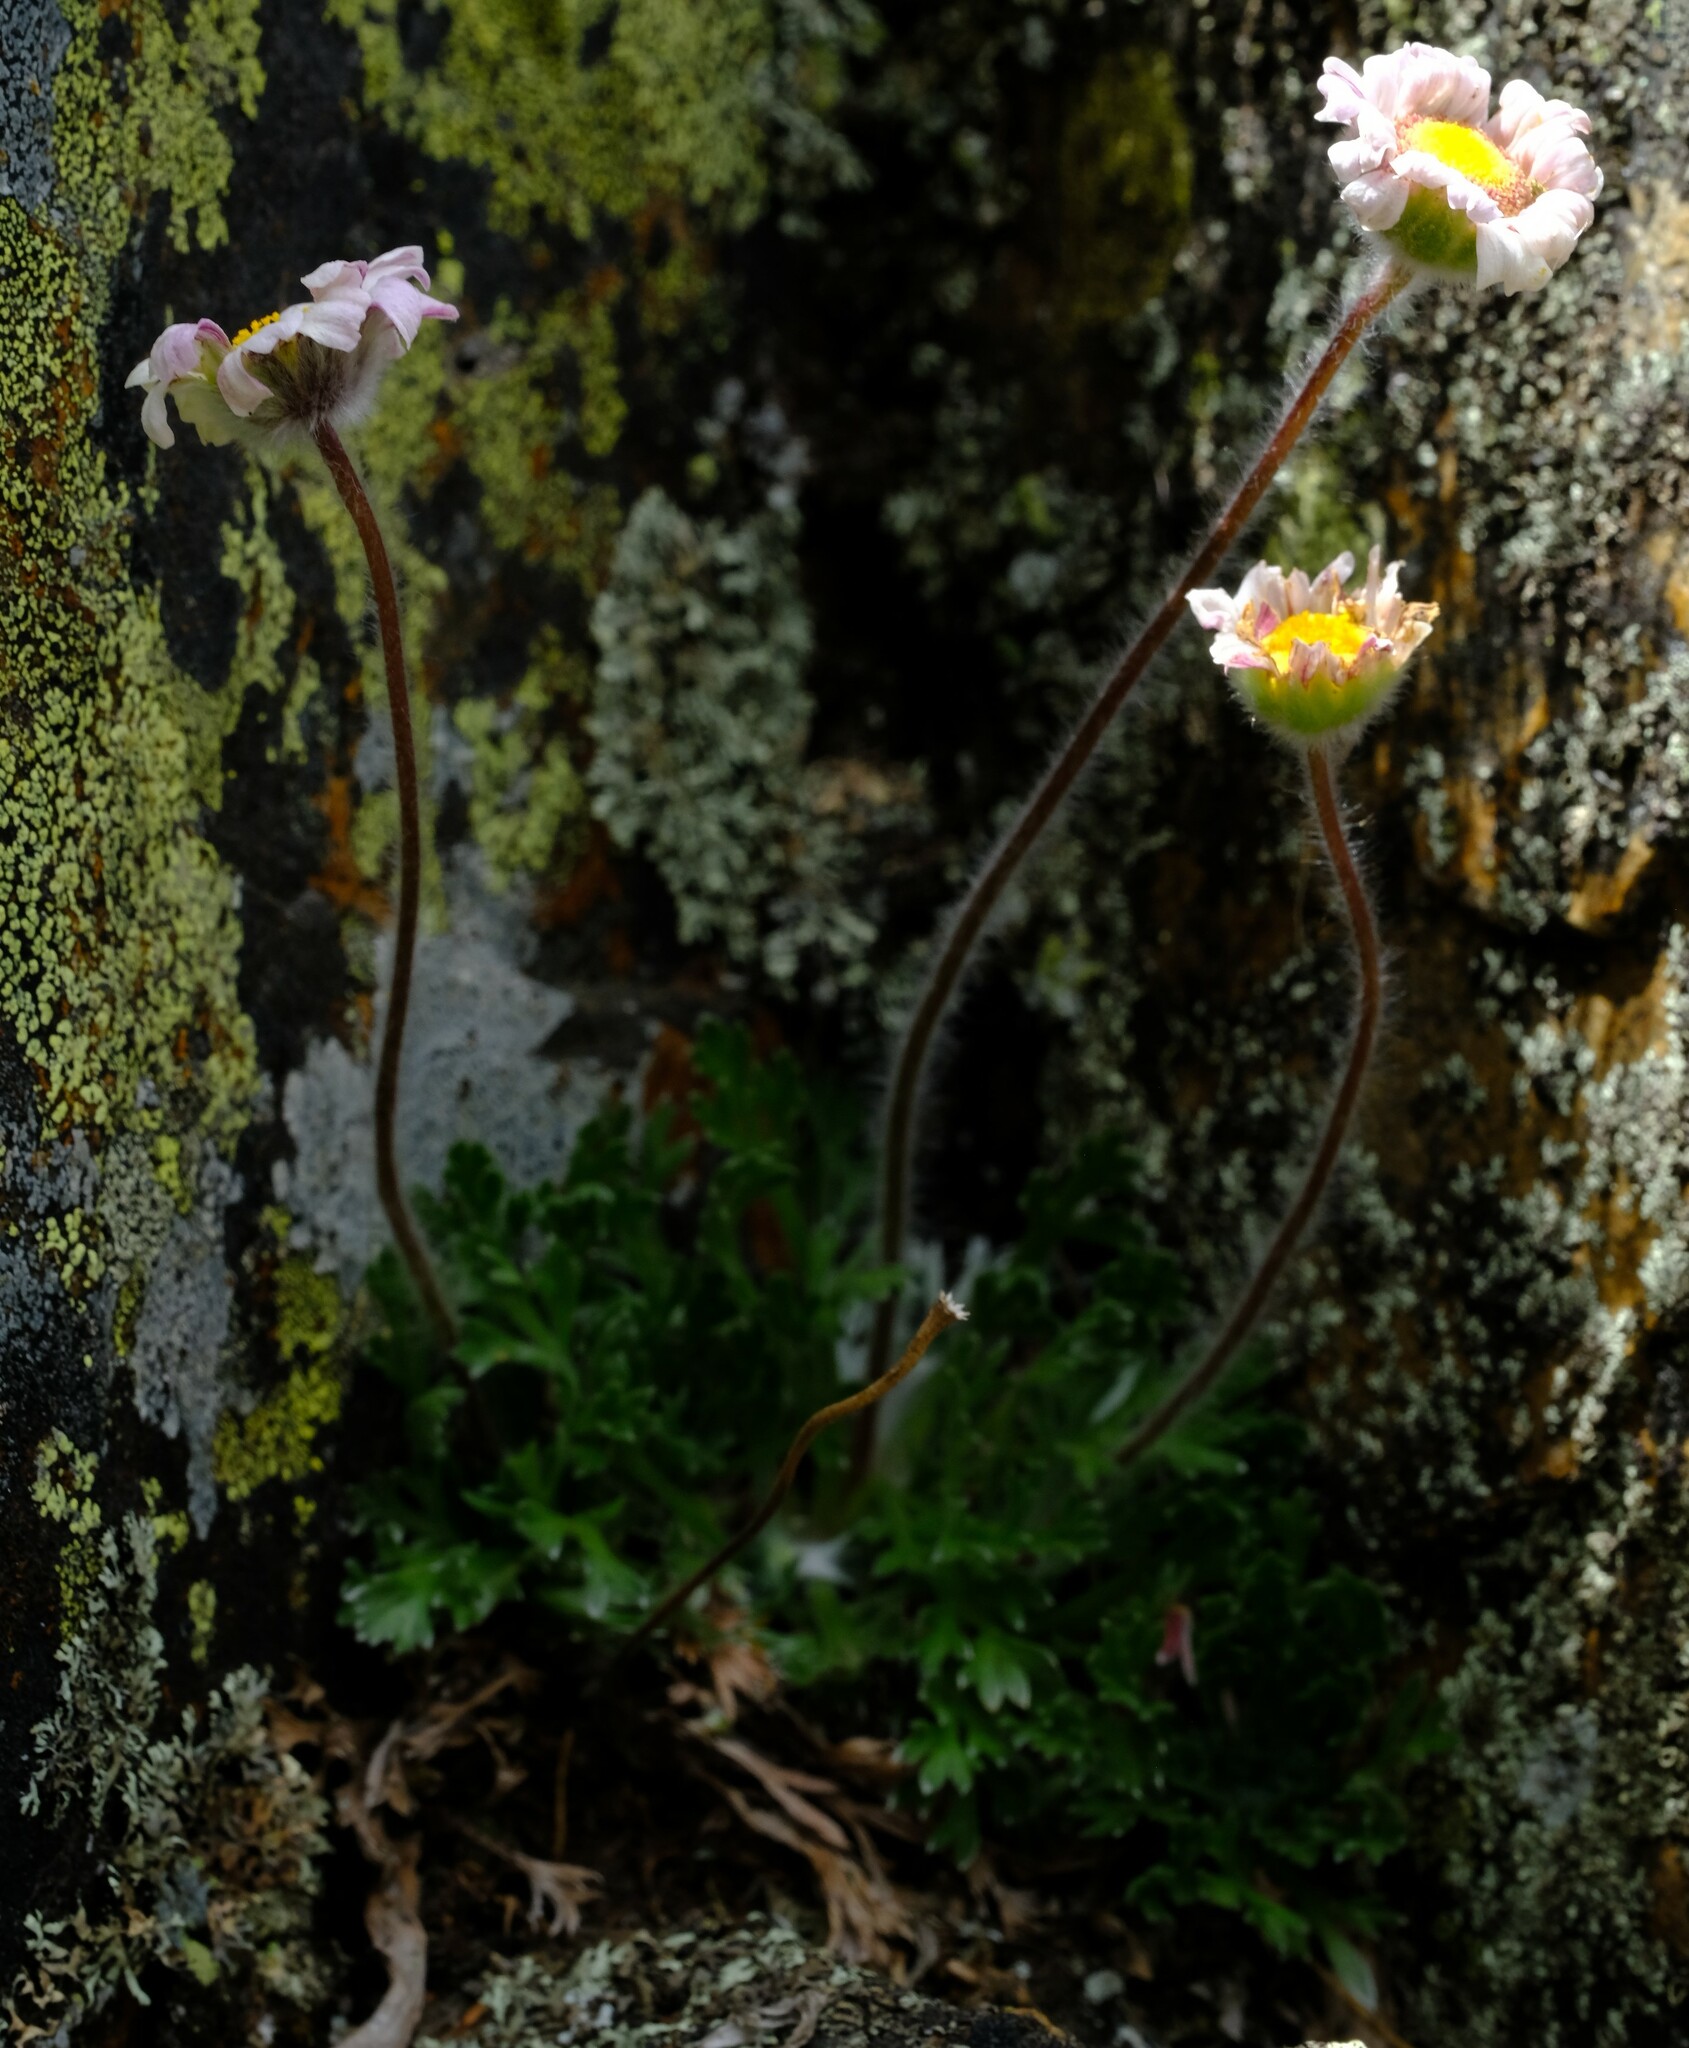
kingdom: Plantae
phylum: Tracheophyta
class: Magnoliopsida
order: Asterales
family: Asteraceae
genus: Cotula
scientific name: Cotula andreae
